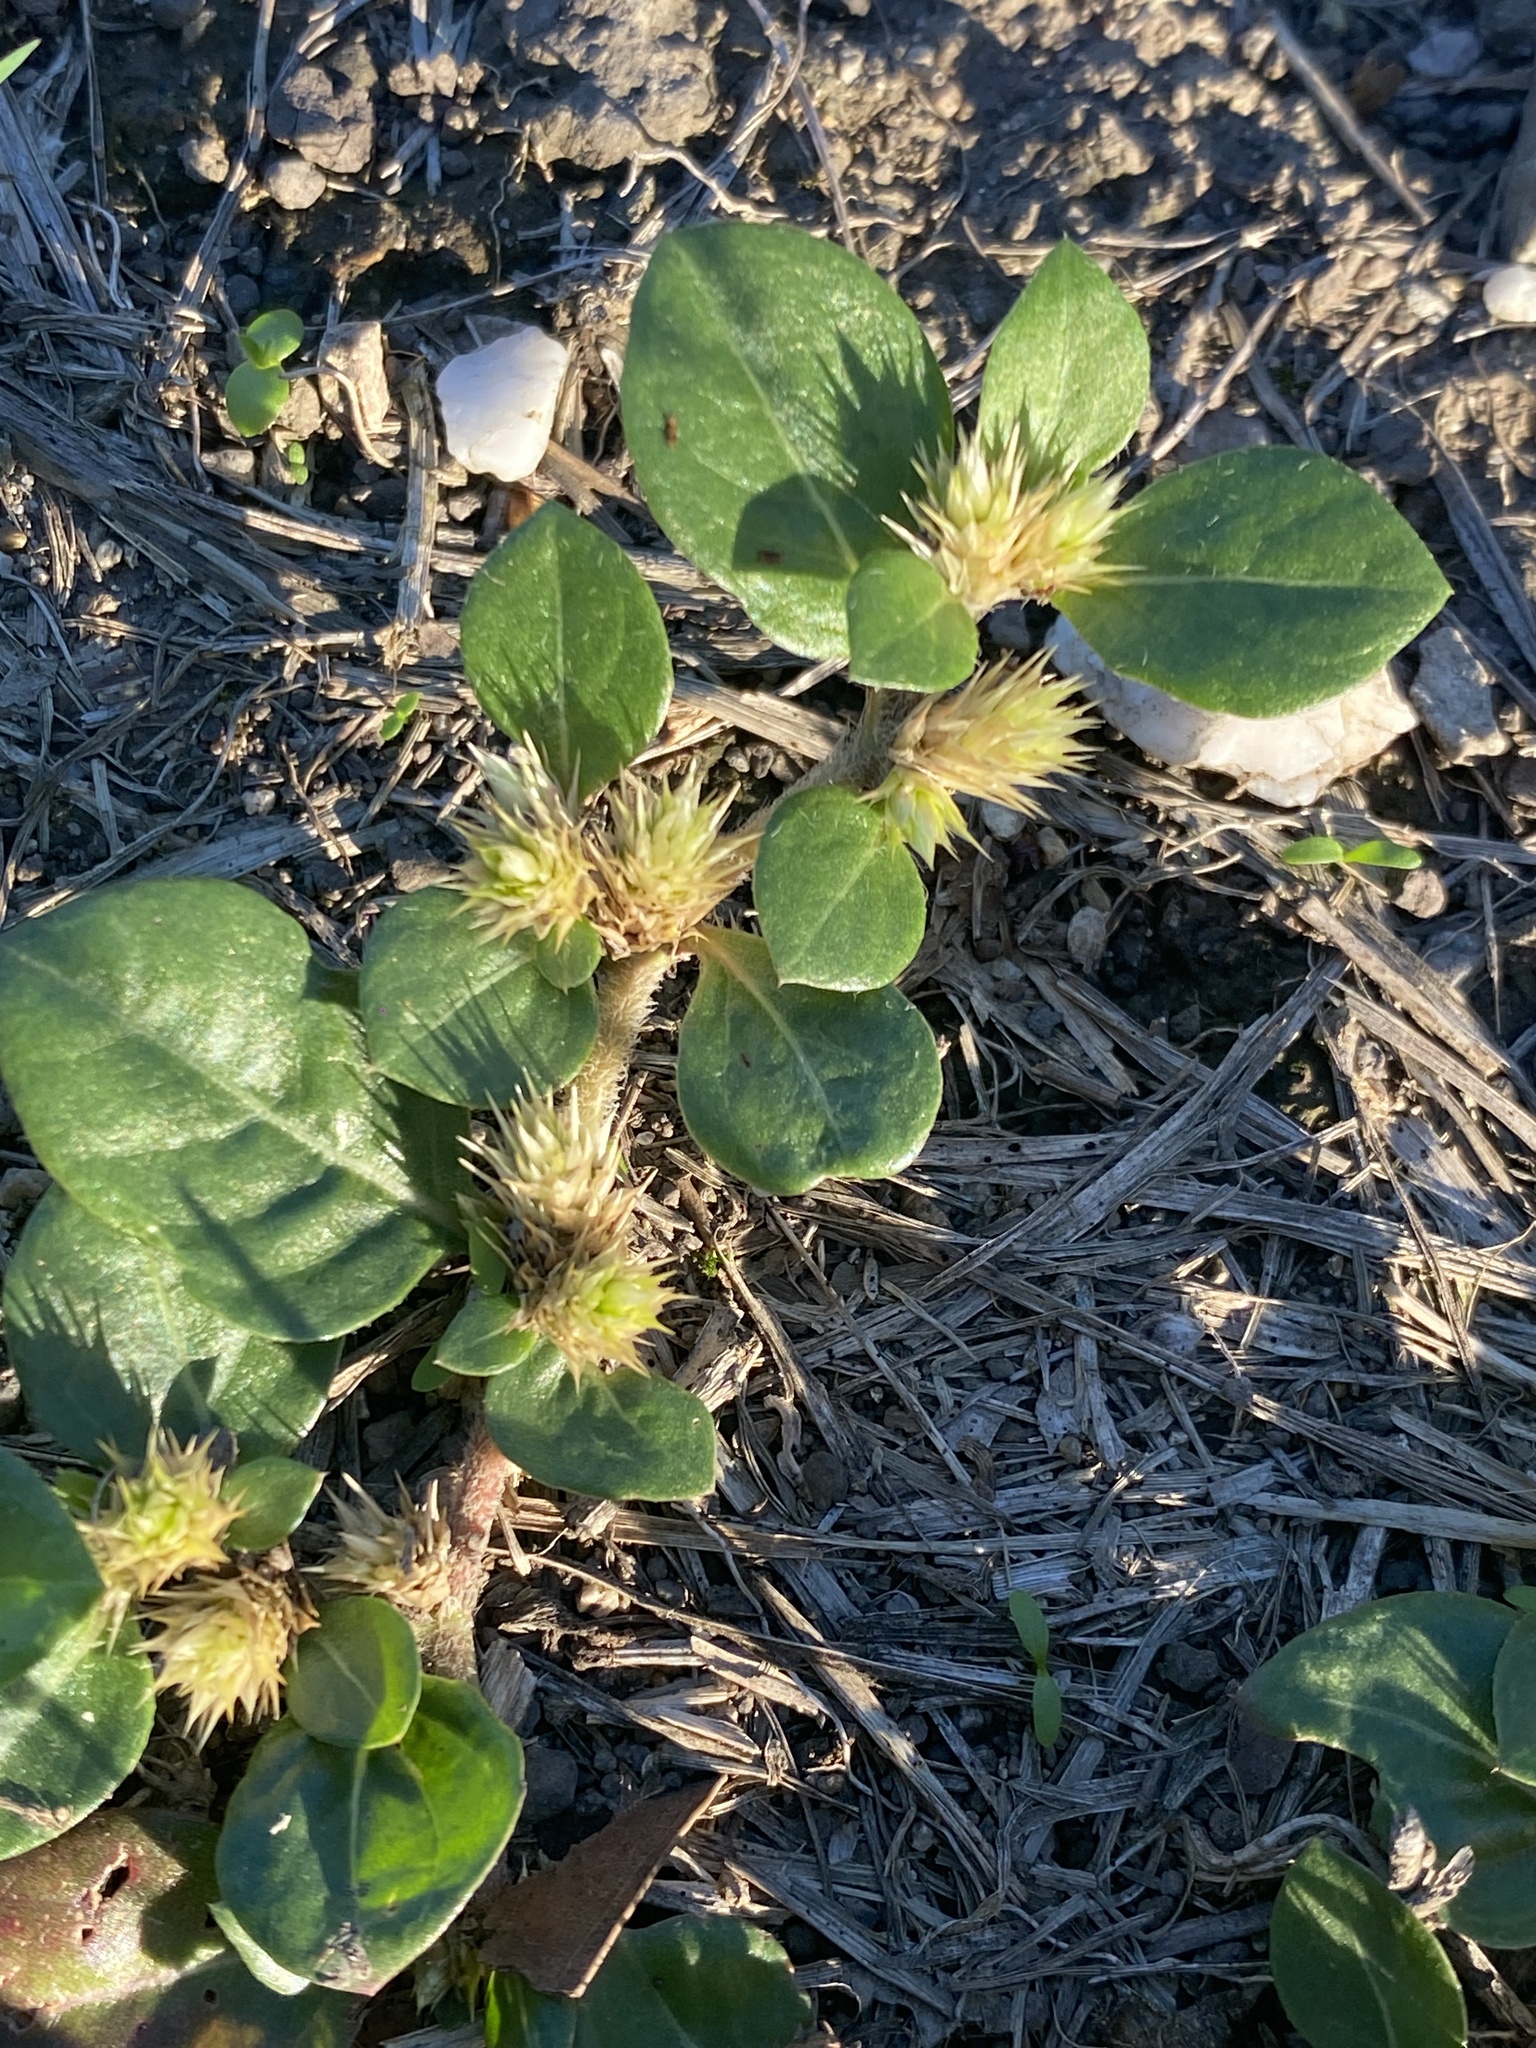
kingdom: Plantae
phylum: Tracheophyta
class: Magnoliopsida
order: Caryophyllales
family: Amaranthaceae
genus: Alternanthera
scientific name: Alternanthera pungens
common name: Khakiweed
